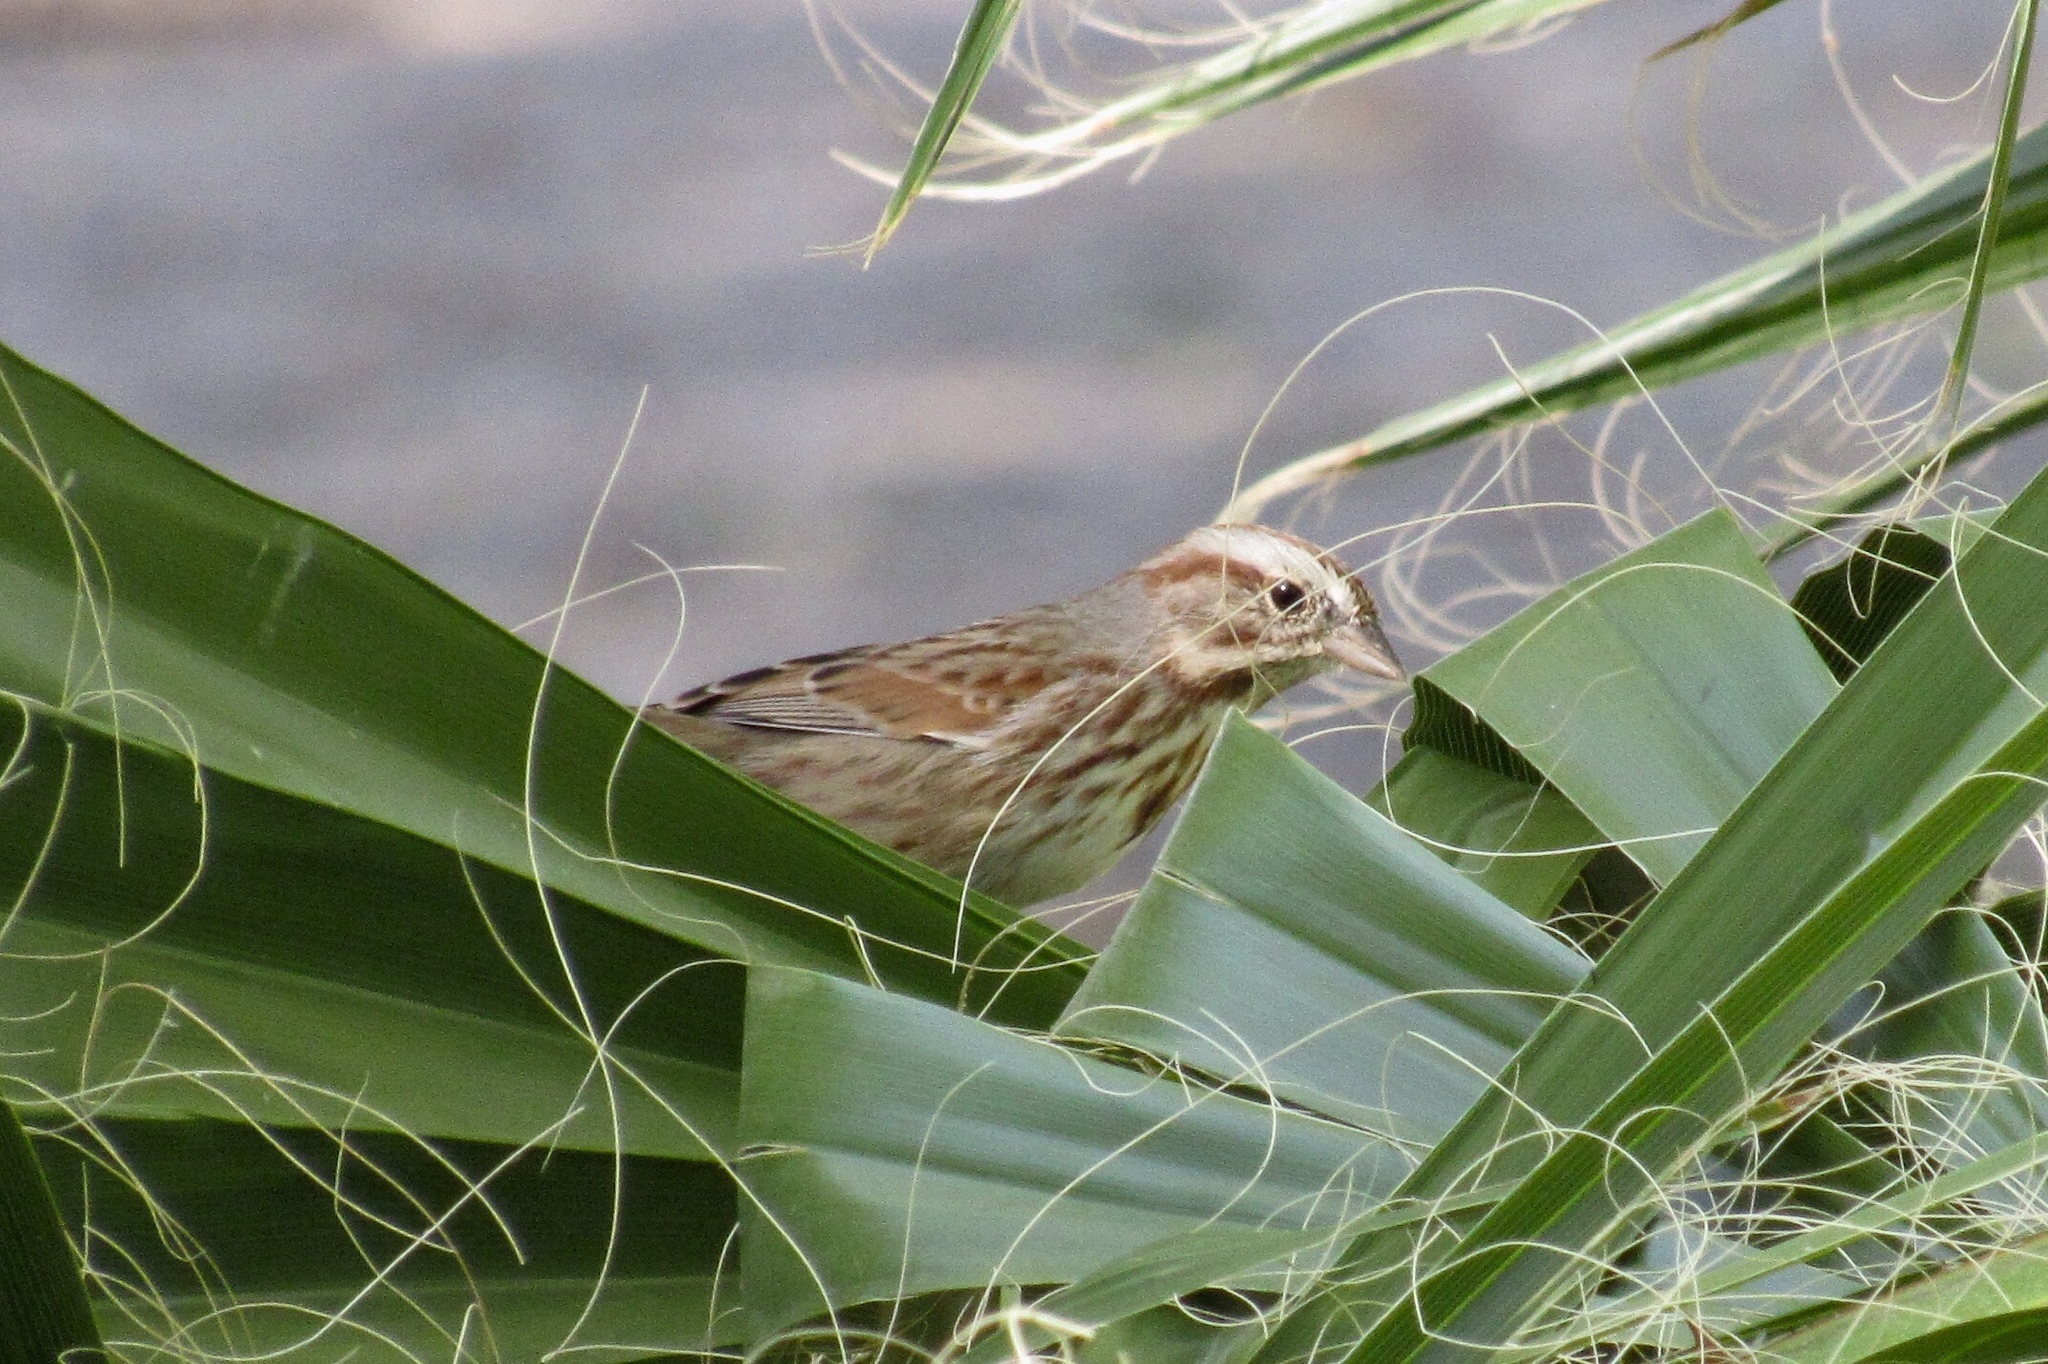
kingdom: Animalia
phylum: Chordata
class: Aves
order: Passeriformes
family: Passerellidae
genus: Melospiza
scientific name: Melospiza melodia
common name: Song sparrow
